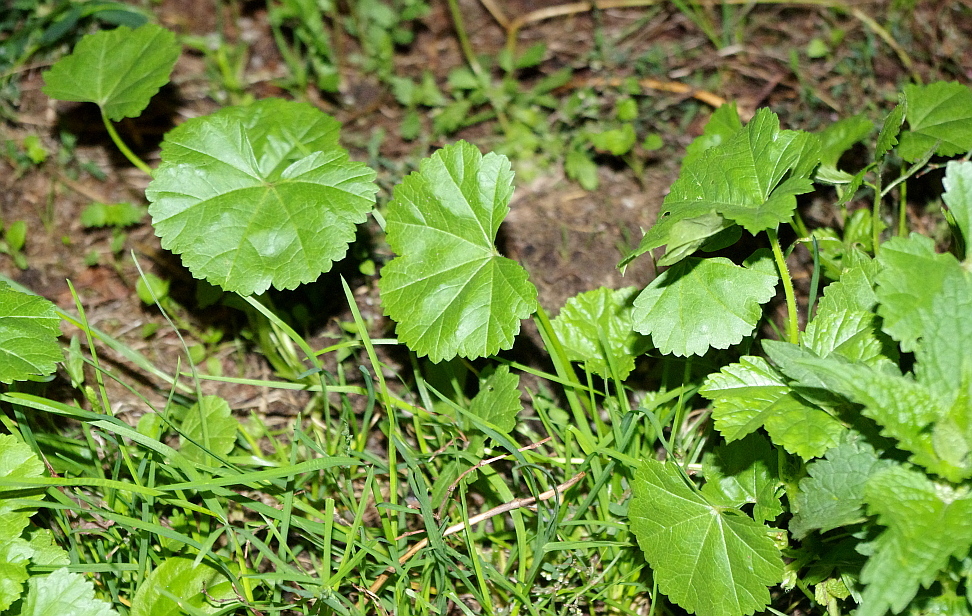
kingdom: Plantae
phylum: Tracheophyta
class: Magnoliopsida
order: Malvales
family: Malvaceae
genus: Malva
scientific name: Malva pusilla
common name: Small mallow
